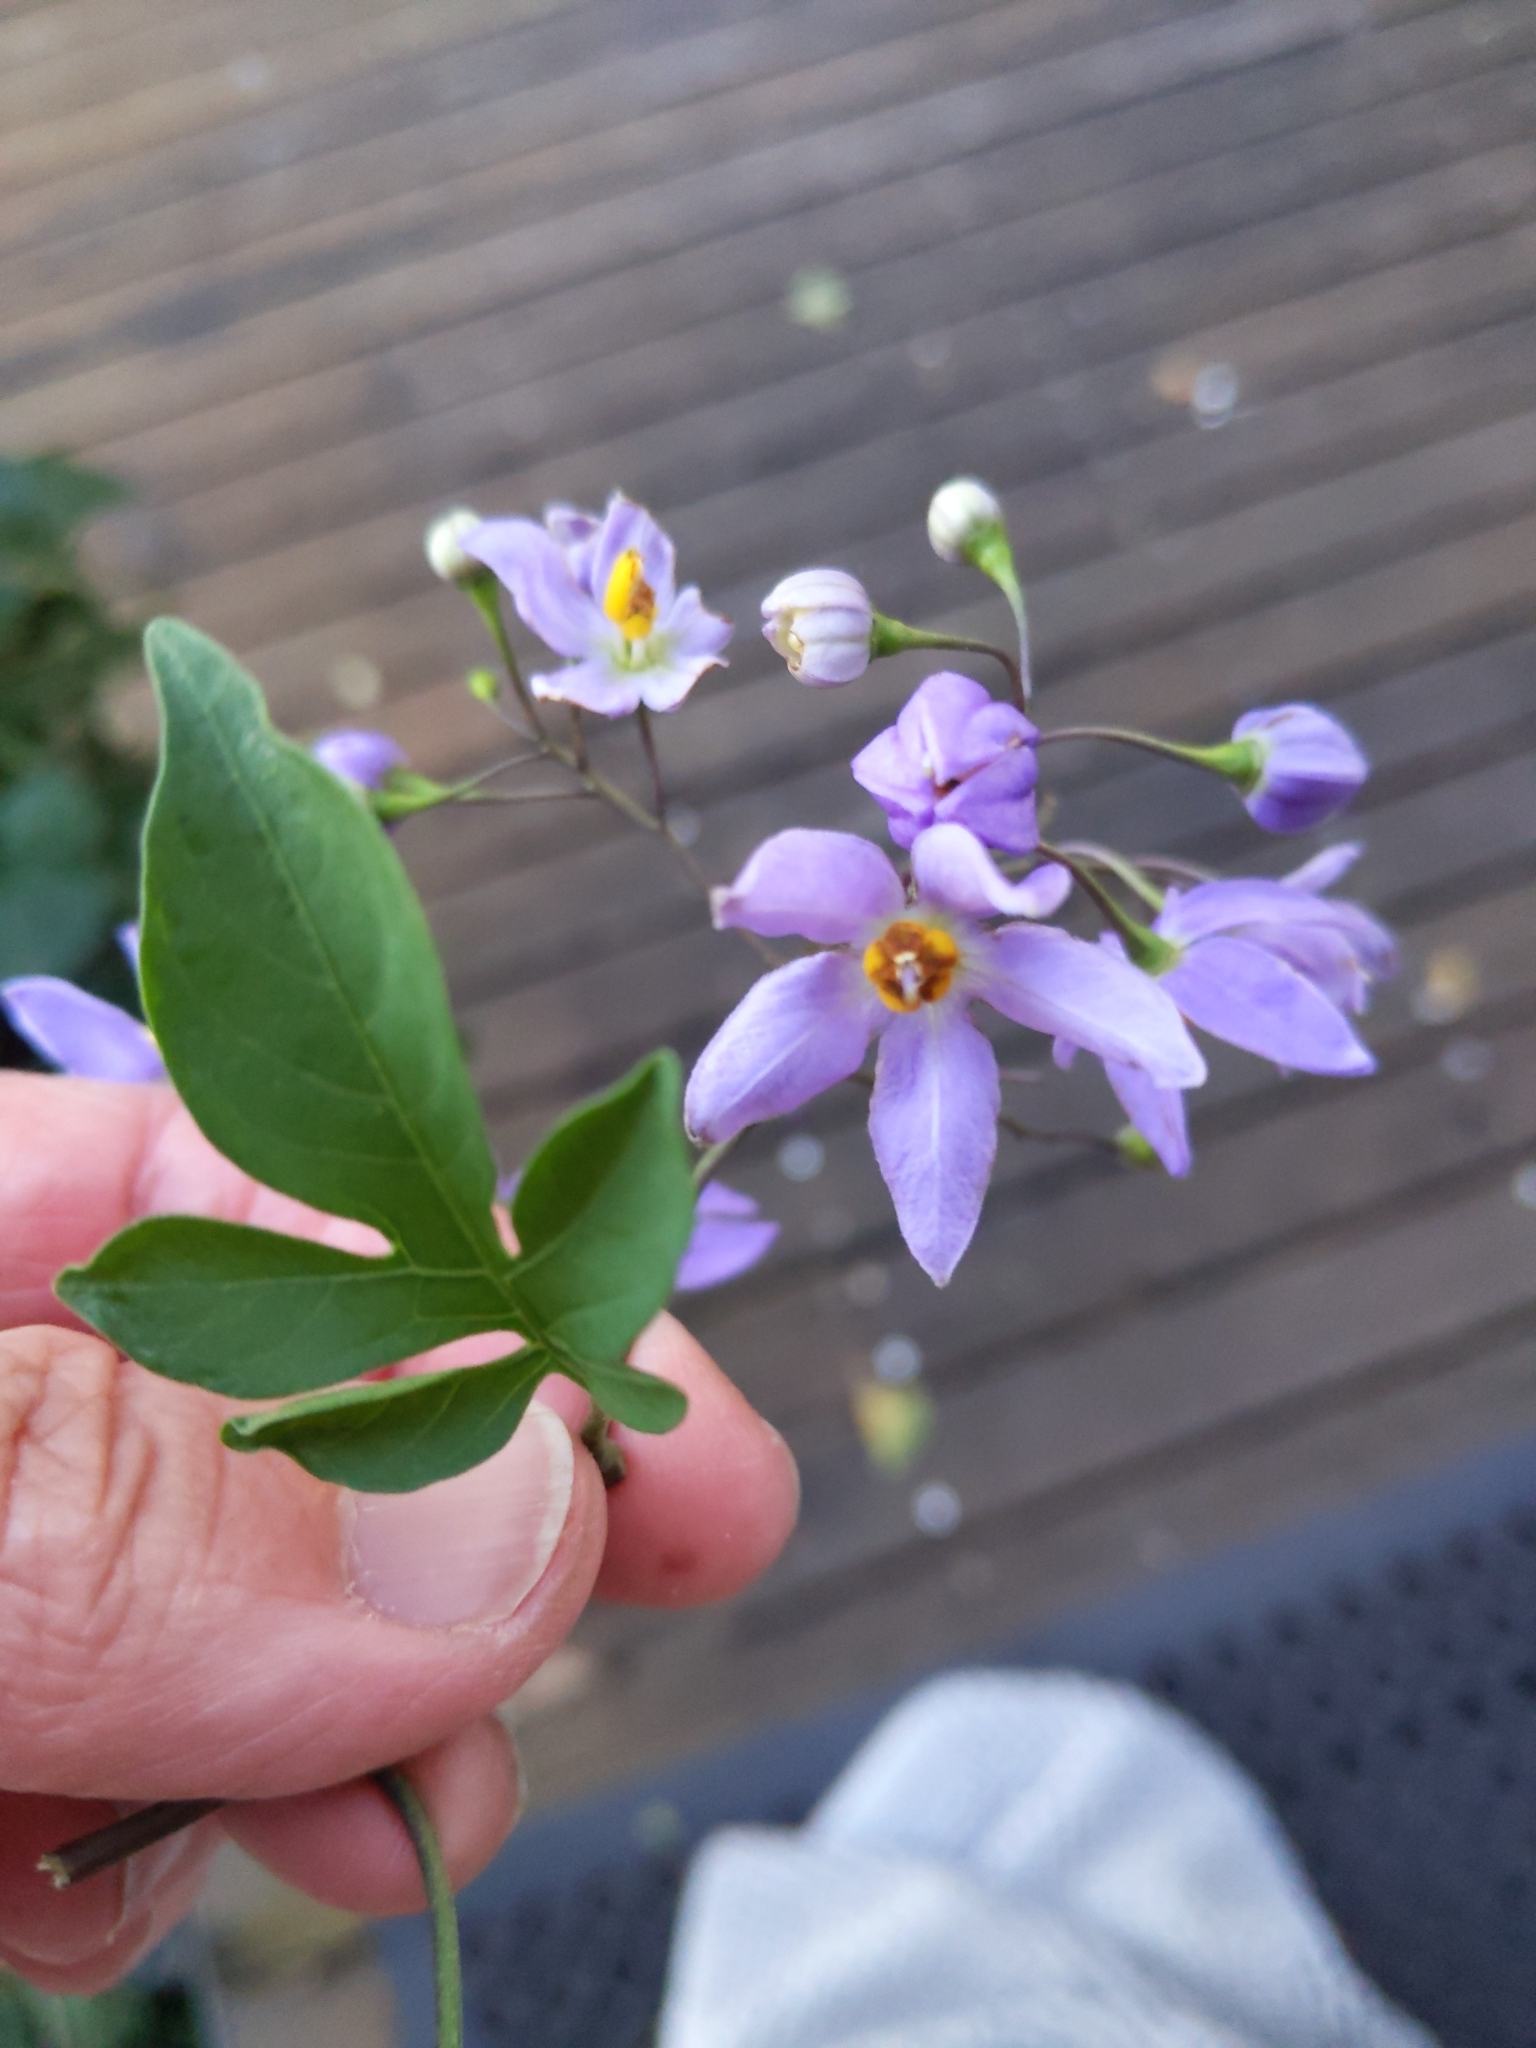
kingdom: Plantae
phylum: Tracheophyta
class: Magnoliopsida
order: Solanales
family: Solanaceae
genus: Solanum
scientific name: Solanum seaforthianum
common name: Brazilian nightshade
